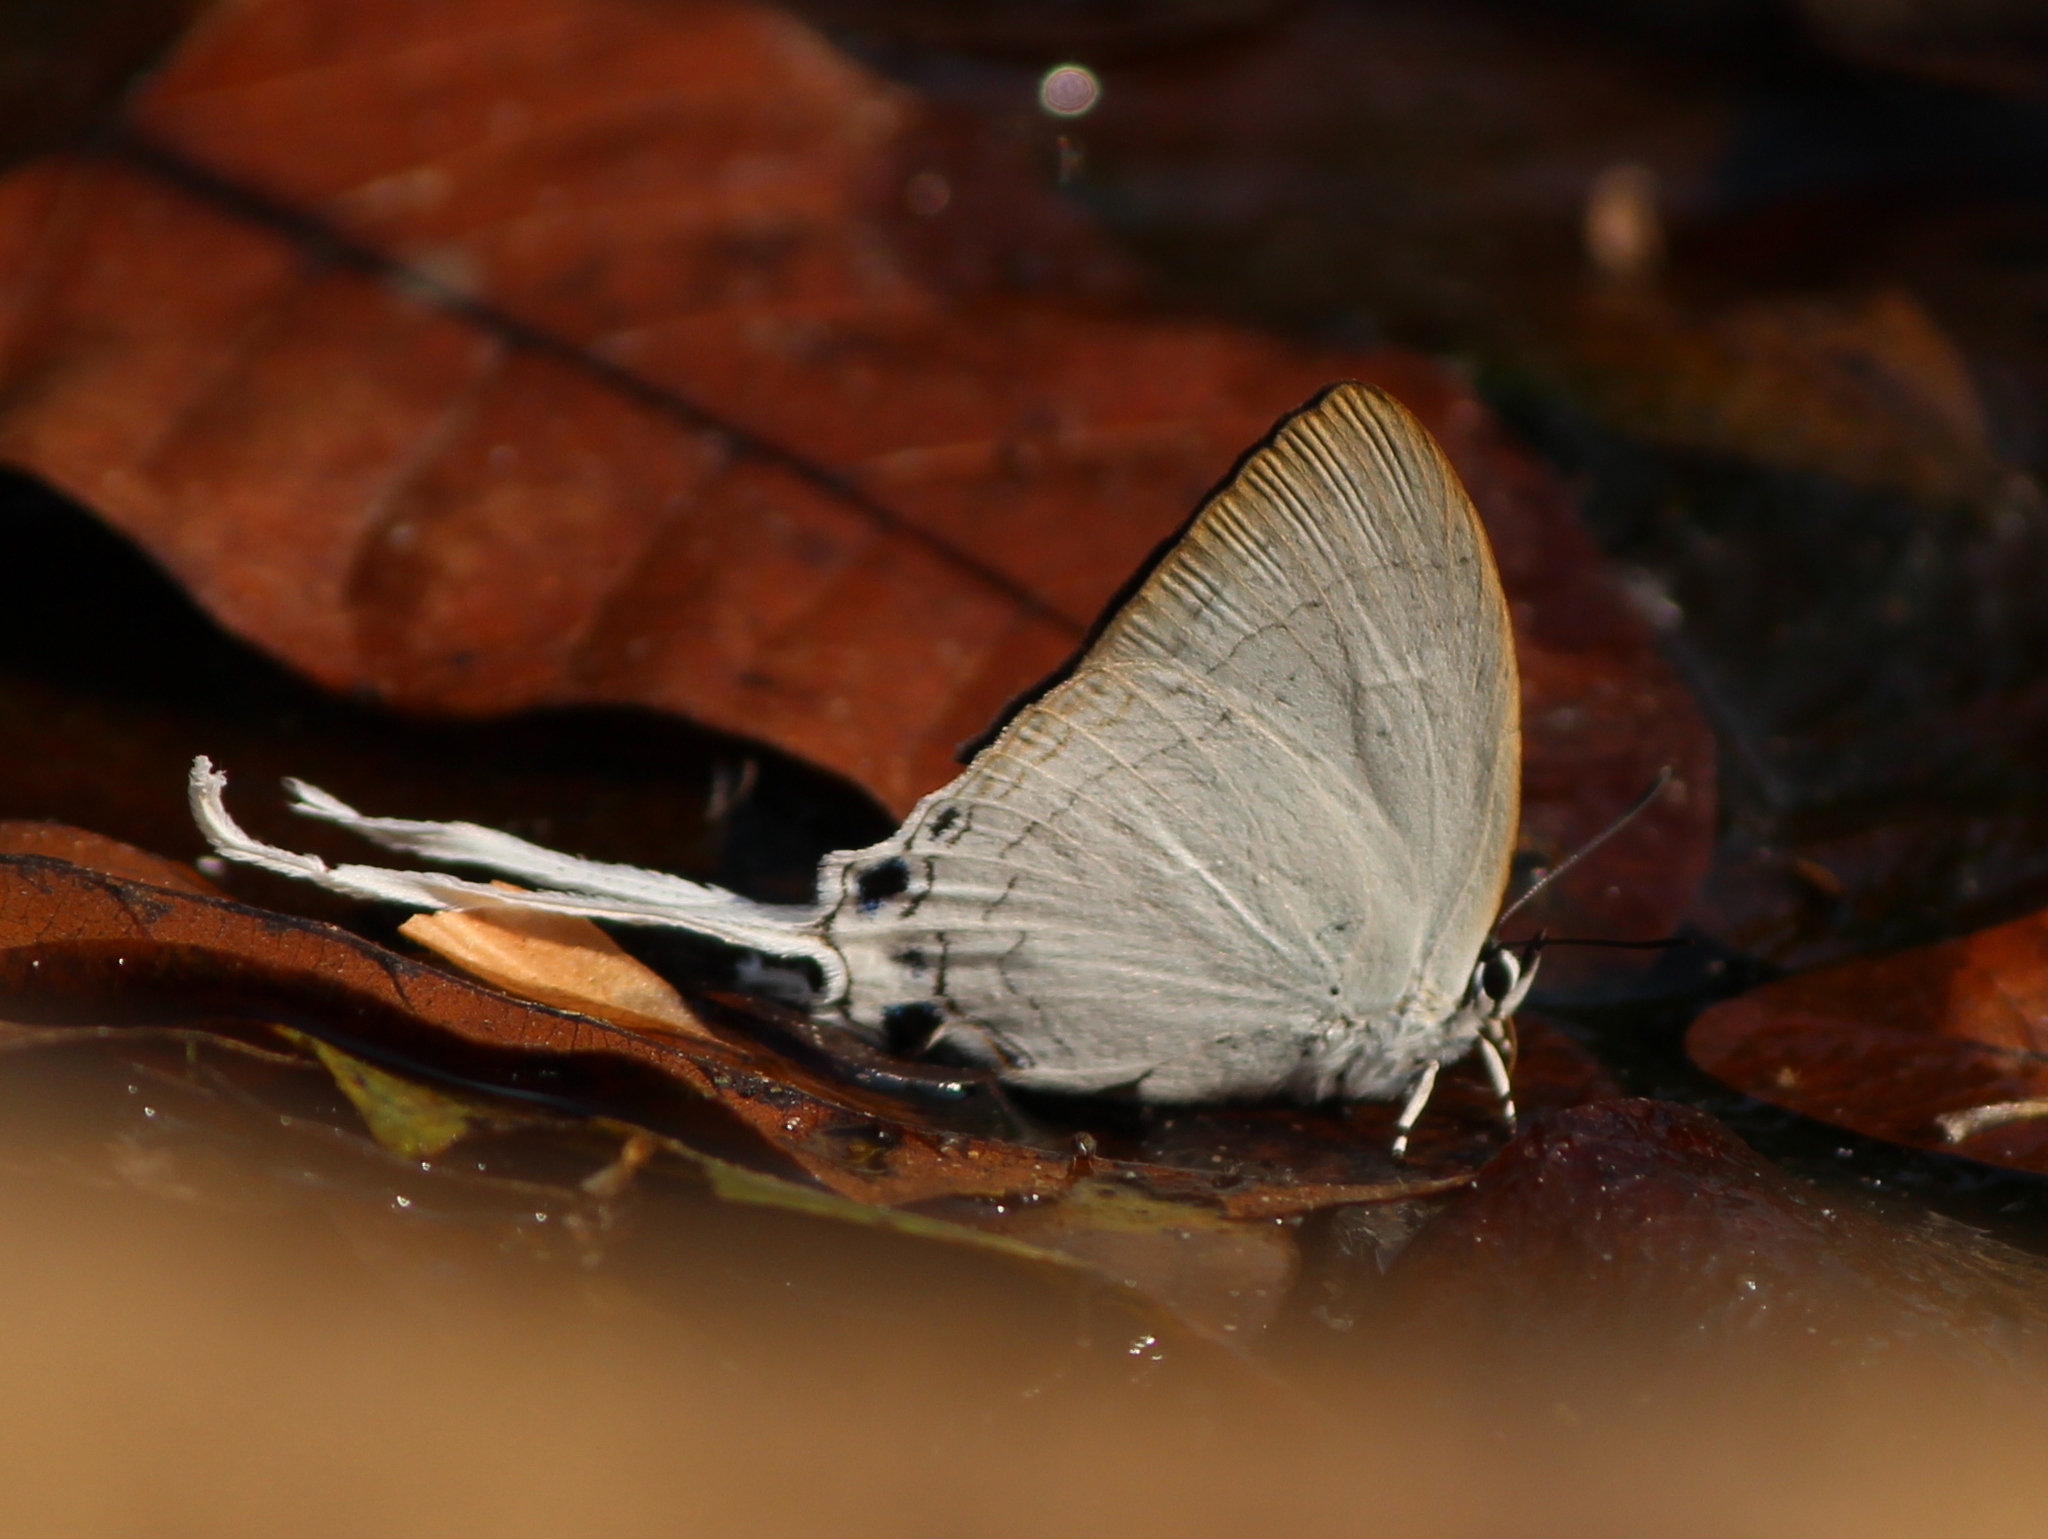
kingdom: Animalia
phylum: Arthropoda
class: Insecta
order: Lepidoptera
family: Lycaenidae
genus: Cheritra
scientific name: Cheritra freja
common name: Common imperial
